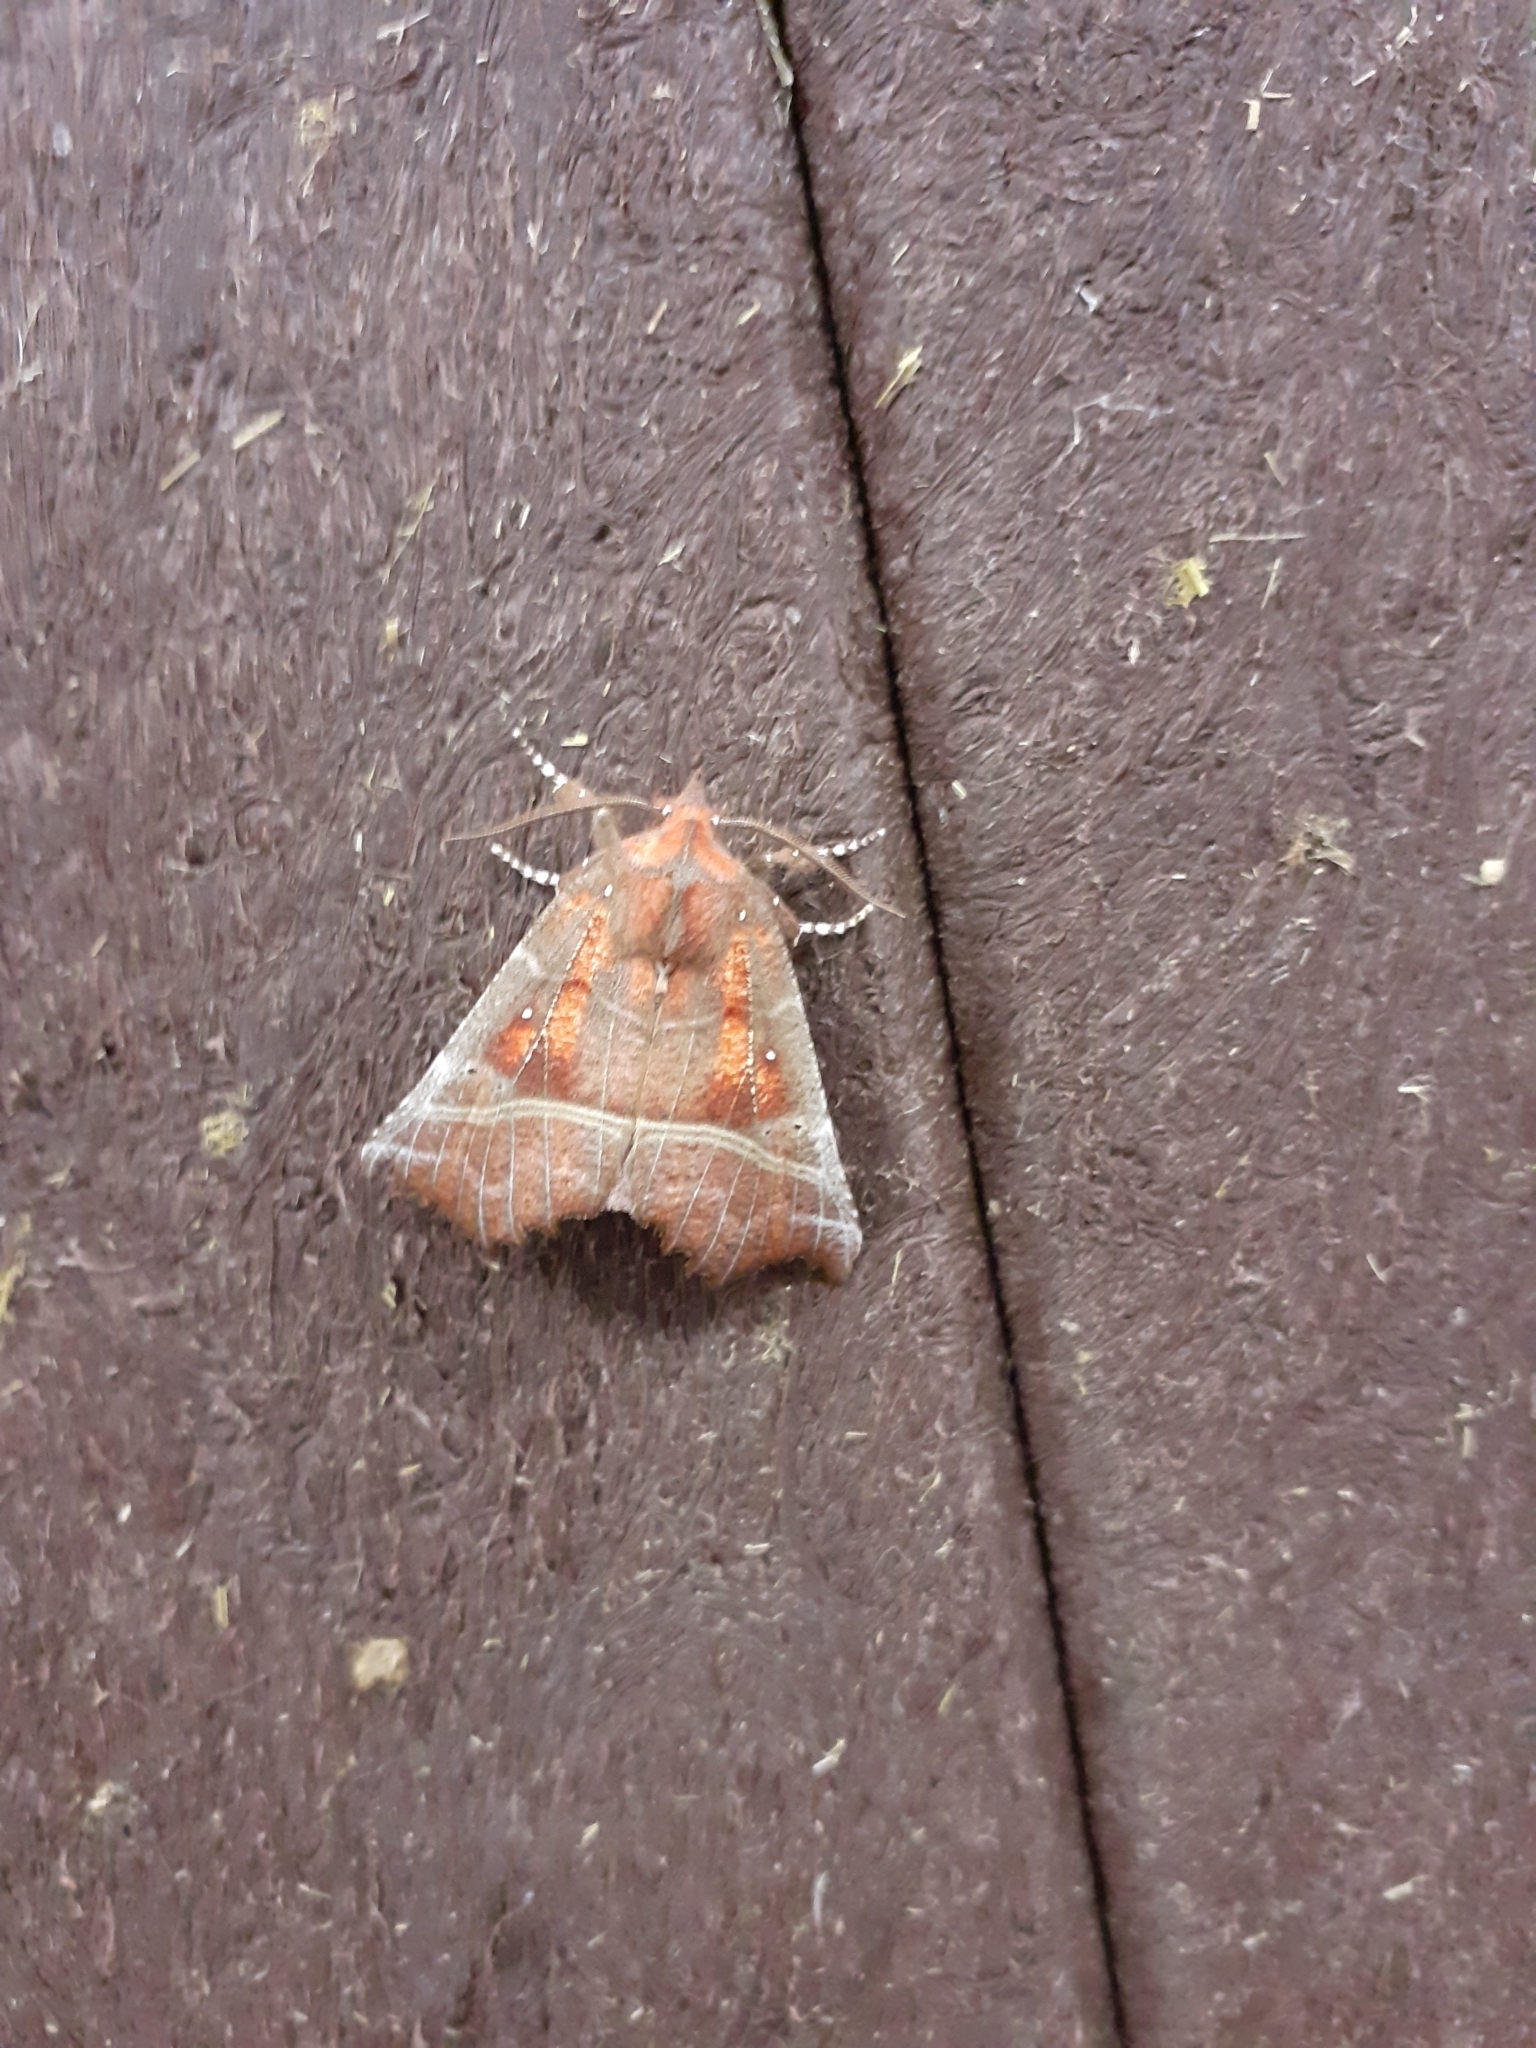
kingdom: Animalia
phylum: Arthropoda
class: Insecta
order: Lepidoptera
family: Erebidae
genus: Scoliopteryx
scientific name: Scoliopteryx libatrix
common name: Herald
